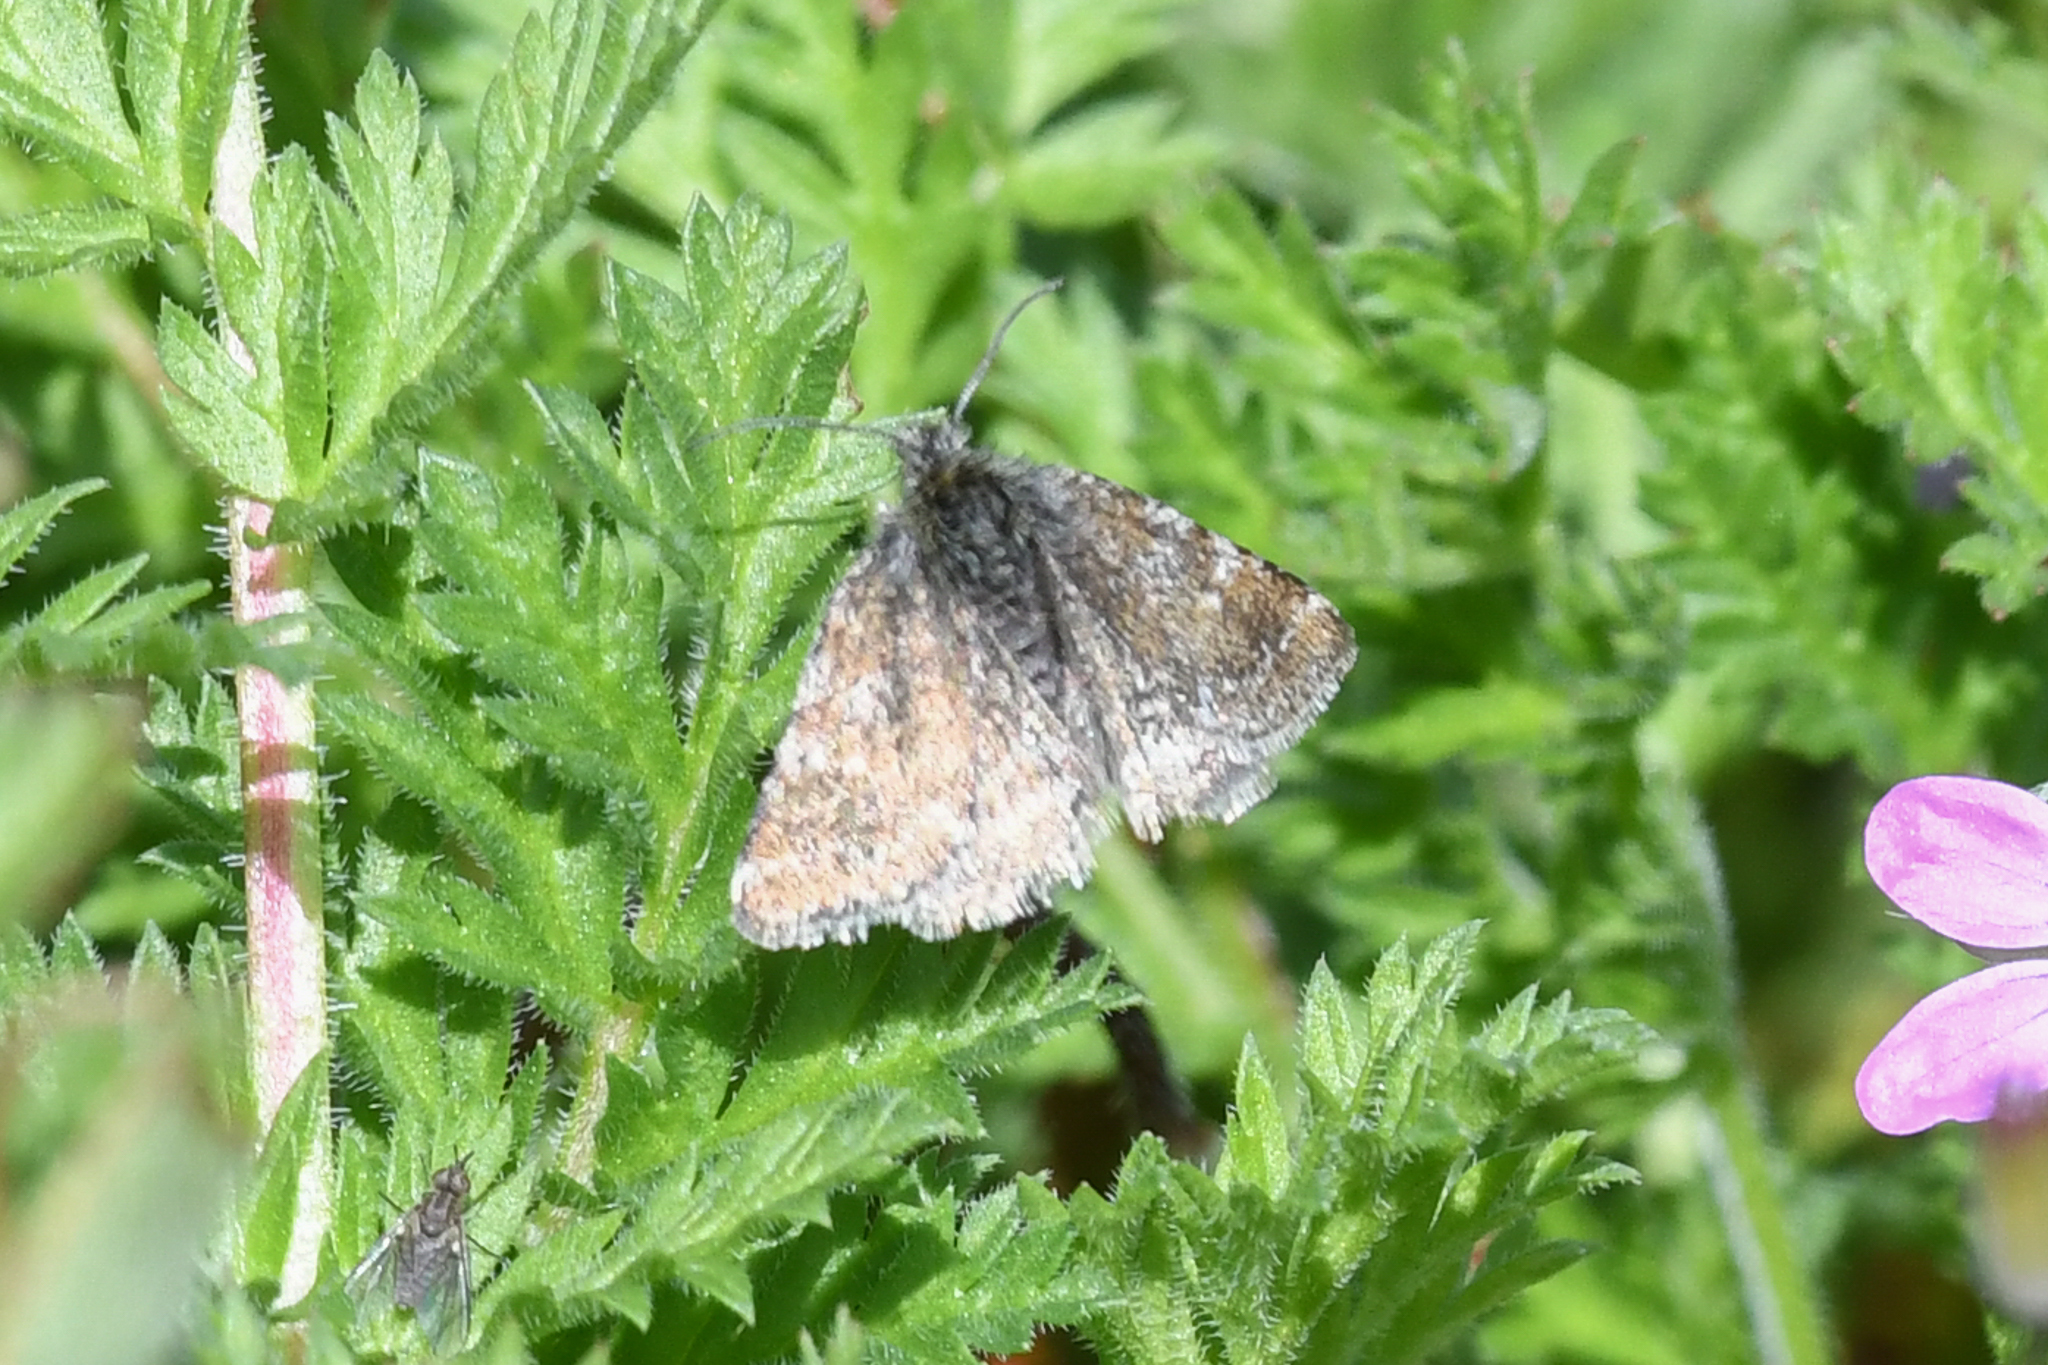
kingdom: Animalia
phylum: Arthropoda
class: Insecta
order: Lepidoptera
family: Noctuidae
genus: Axenus
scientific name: Axenus arvalis
